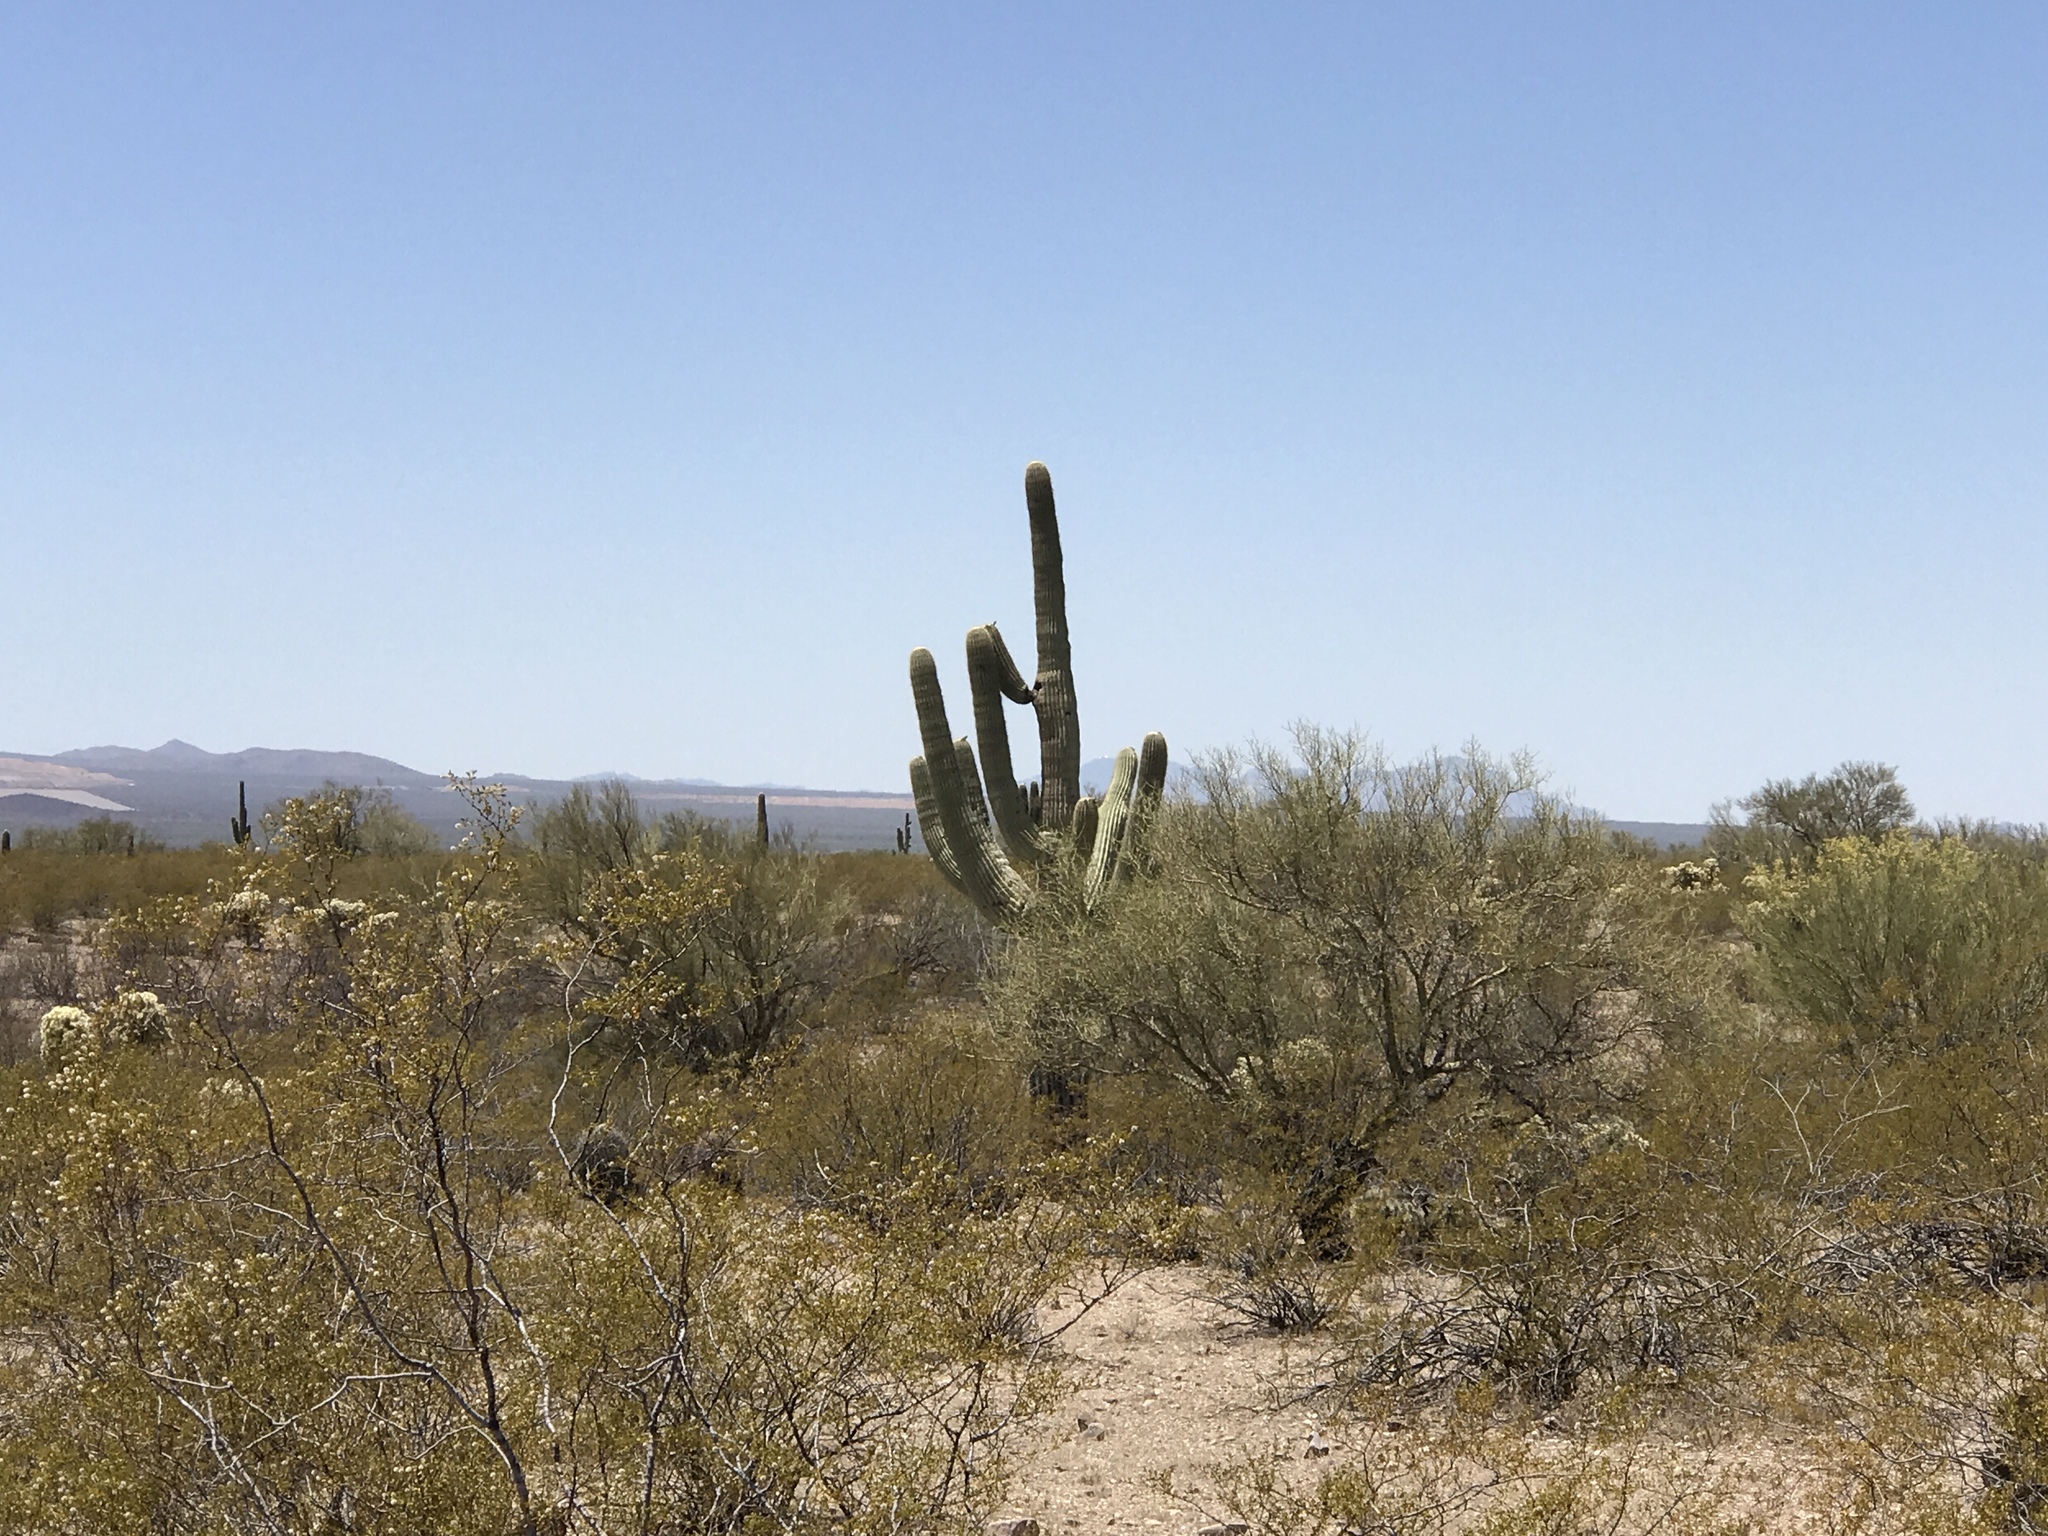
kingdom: Plantae
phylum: Tracheophyta
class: Magnoliopsida
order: Caryophyllales
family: Cactaceae
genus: Carnegiea
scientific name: Carnegiea gigantea
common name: Saguaro
